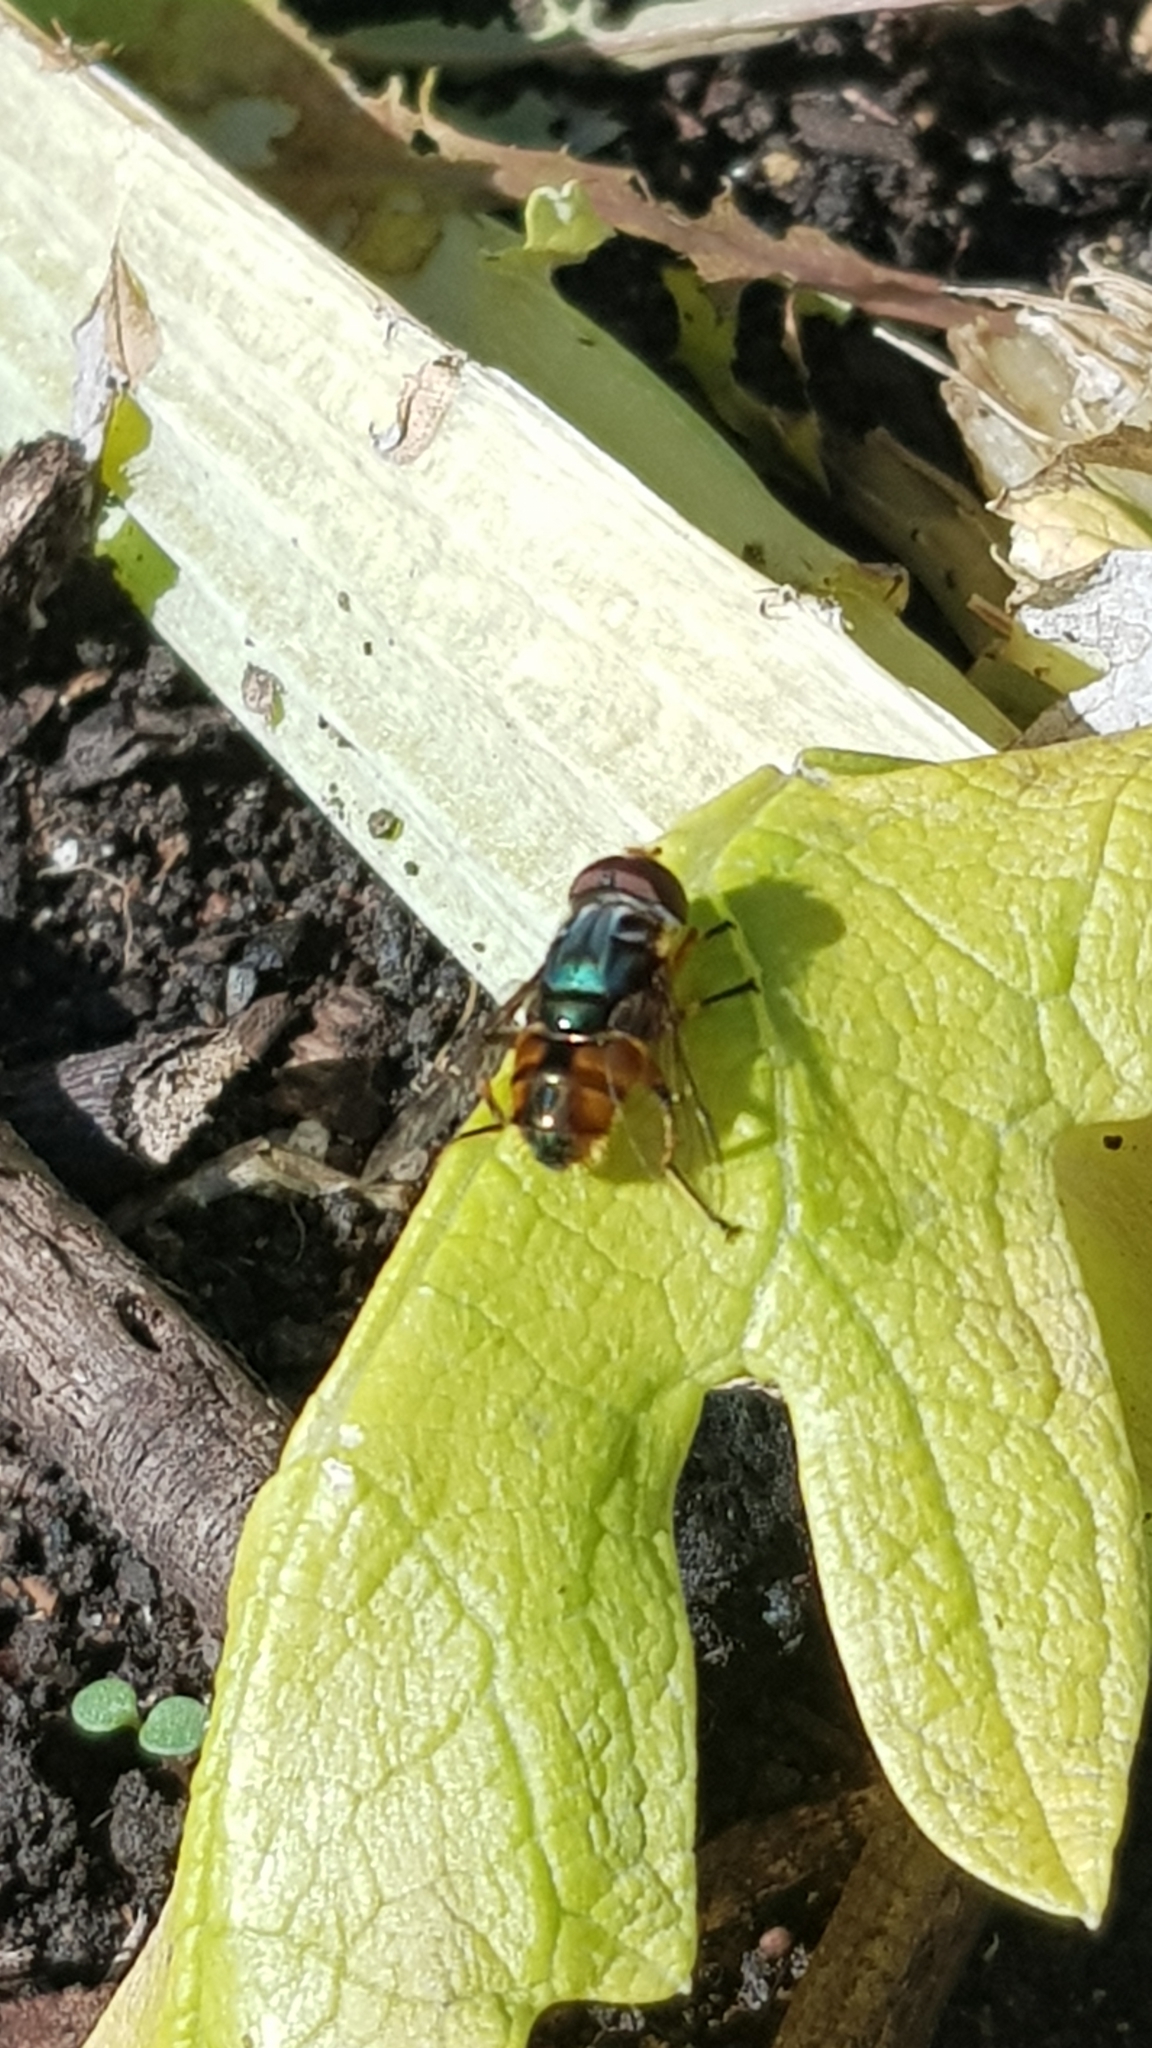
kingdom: Animalia
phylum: Arthropoda
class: Insecta
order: Diptera
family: Syrphidae
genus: Austalis
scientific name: Austalis copiosa
